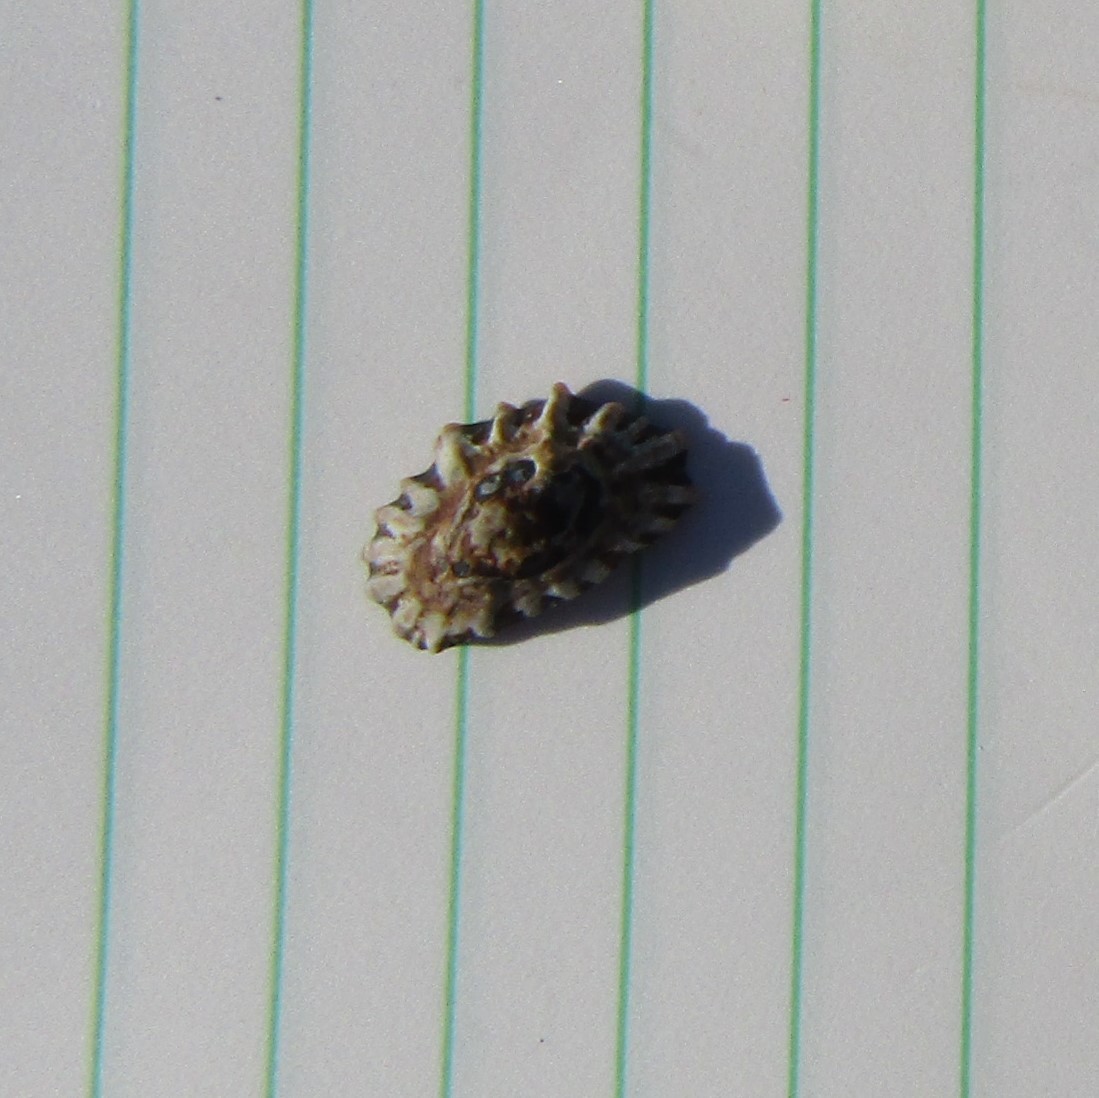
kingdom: Animalia
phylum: Mollusca
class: Gastropoda
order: Siphonariida
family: Siphonariidae
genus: Siphonaria
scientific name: Siphonaria australis
